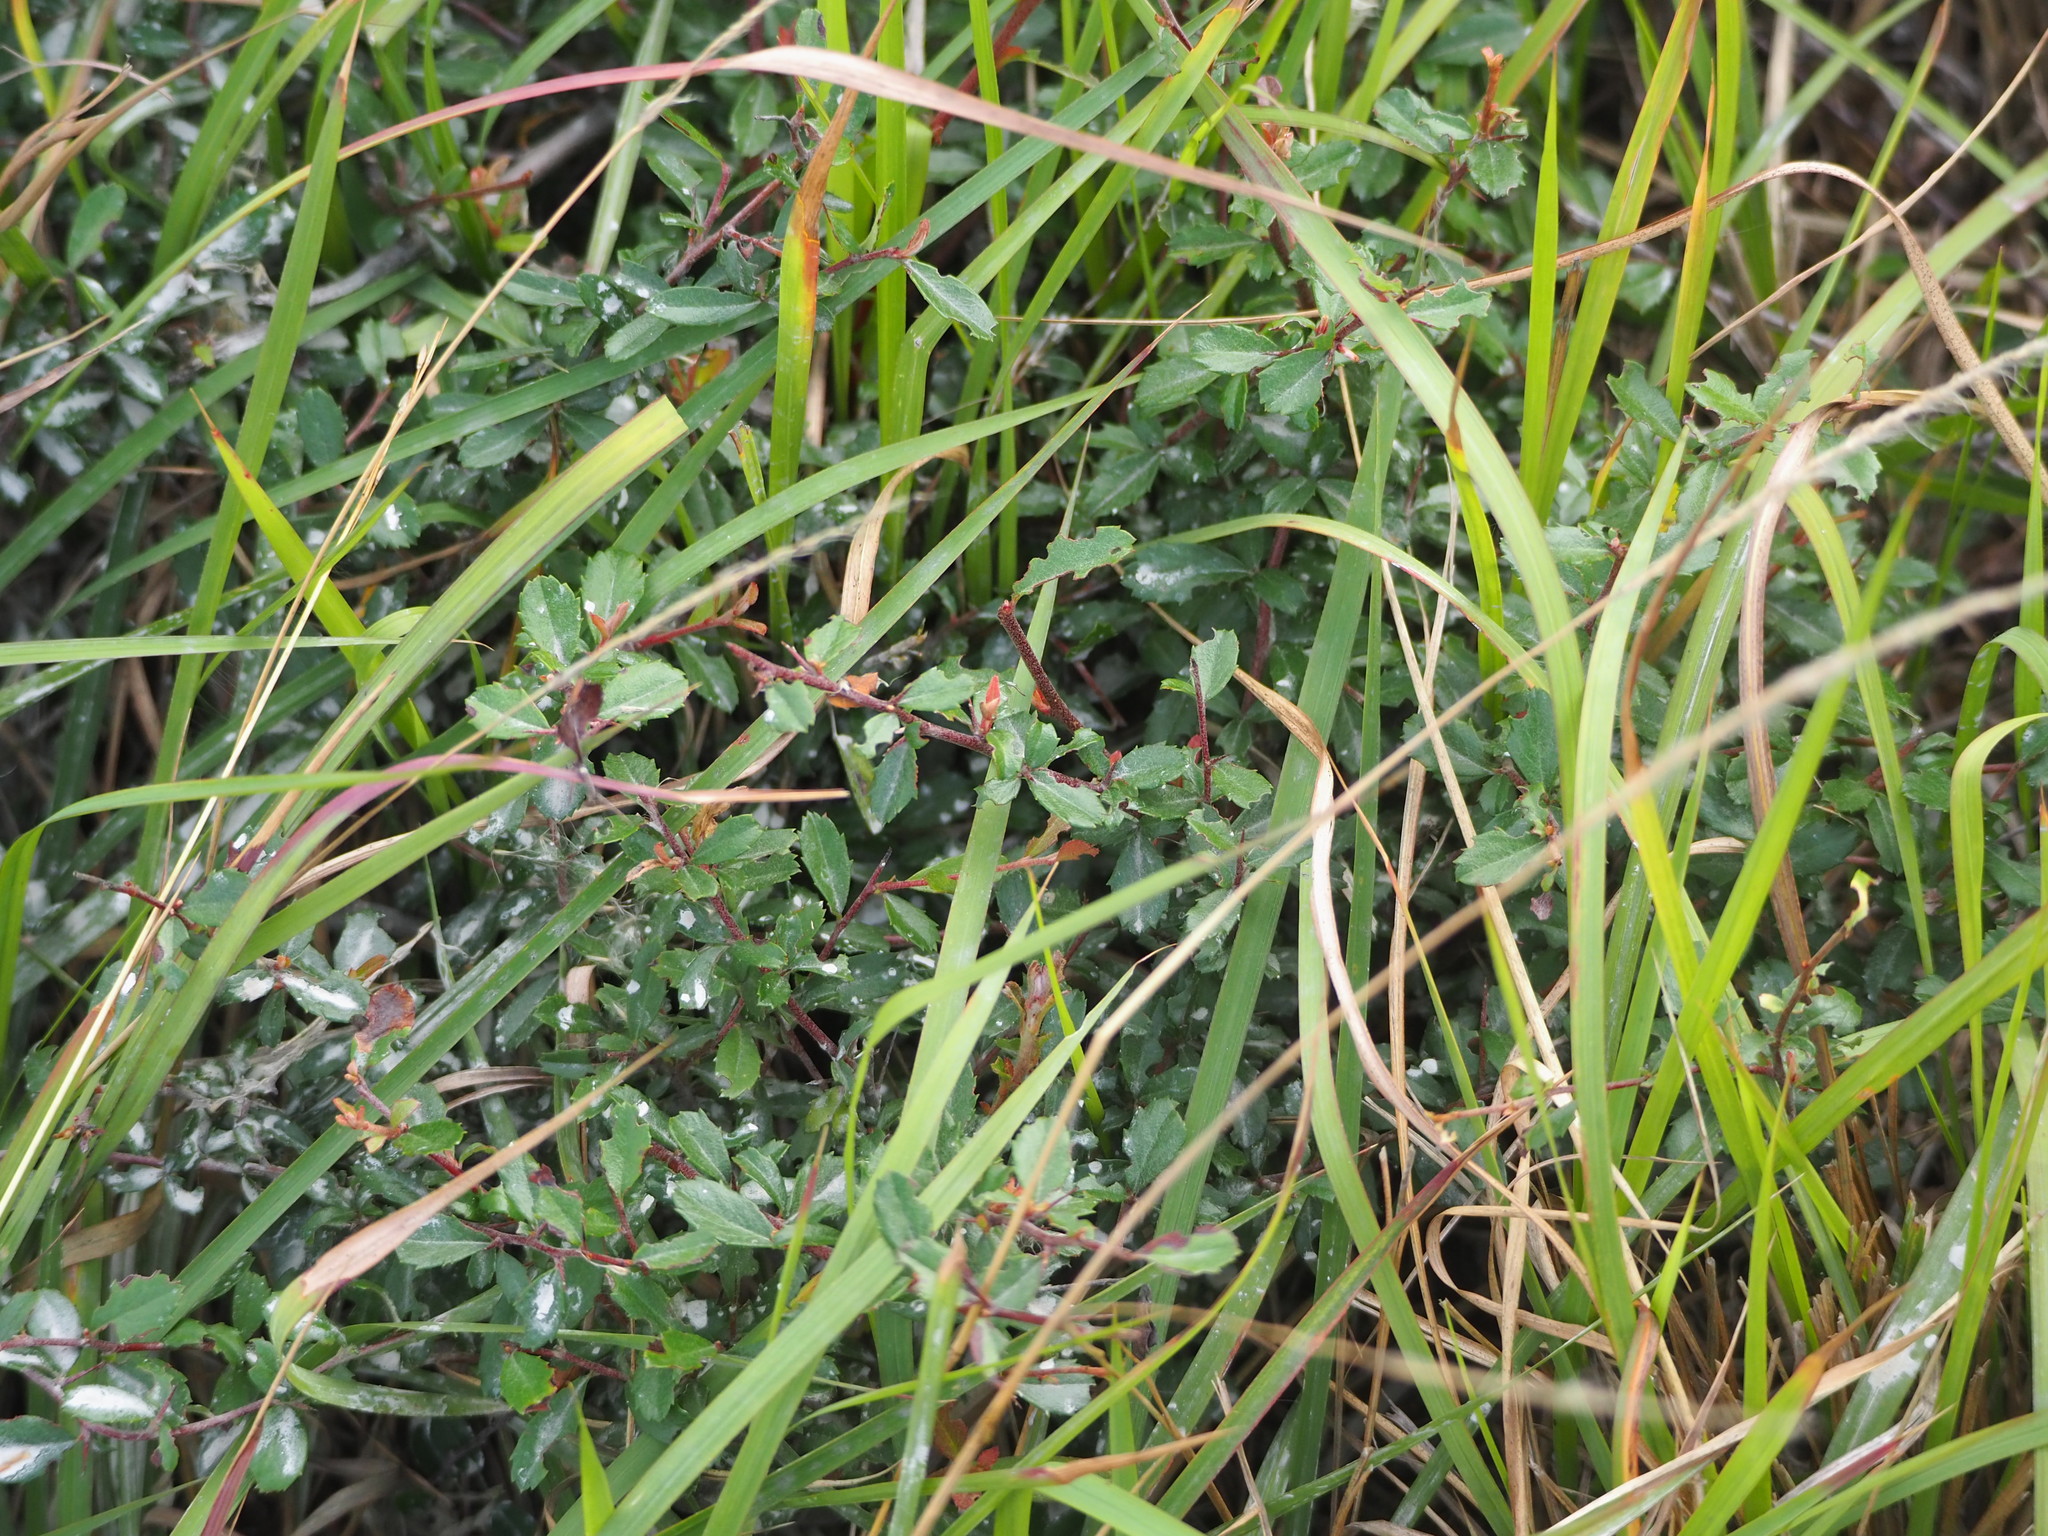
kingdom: Plantae
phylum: Tracheophyta
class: Magnoliopsida
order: Rosales
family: Rosaceae
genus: Pyracantha
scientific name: Pyracantha fortuneana
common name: Chinese firethorn
